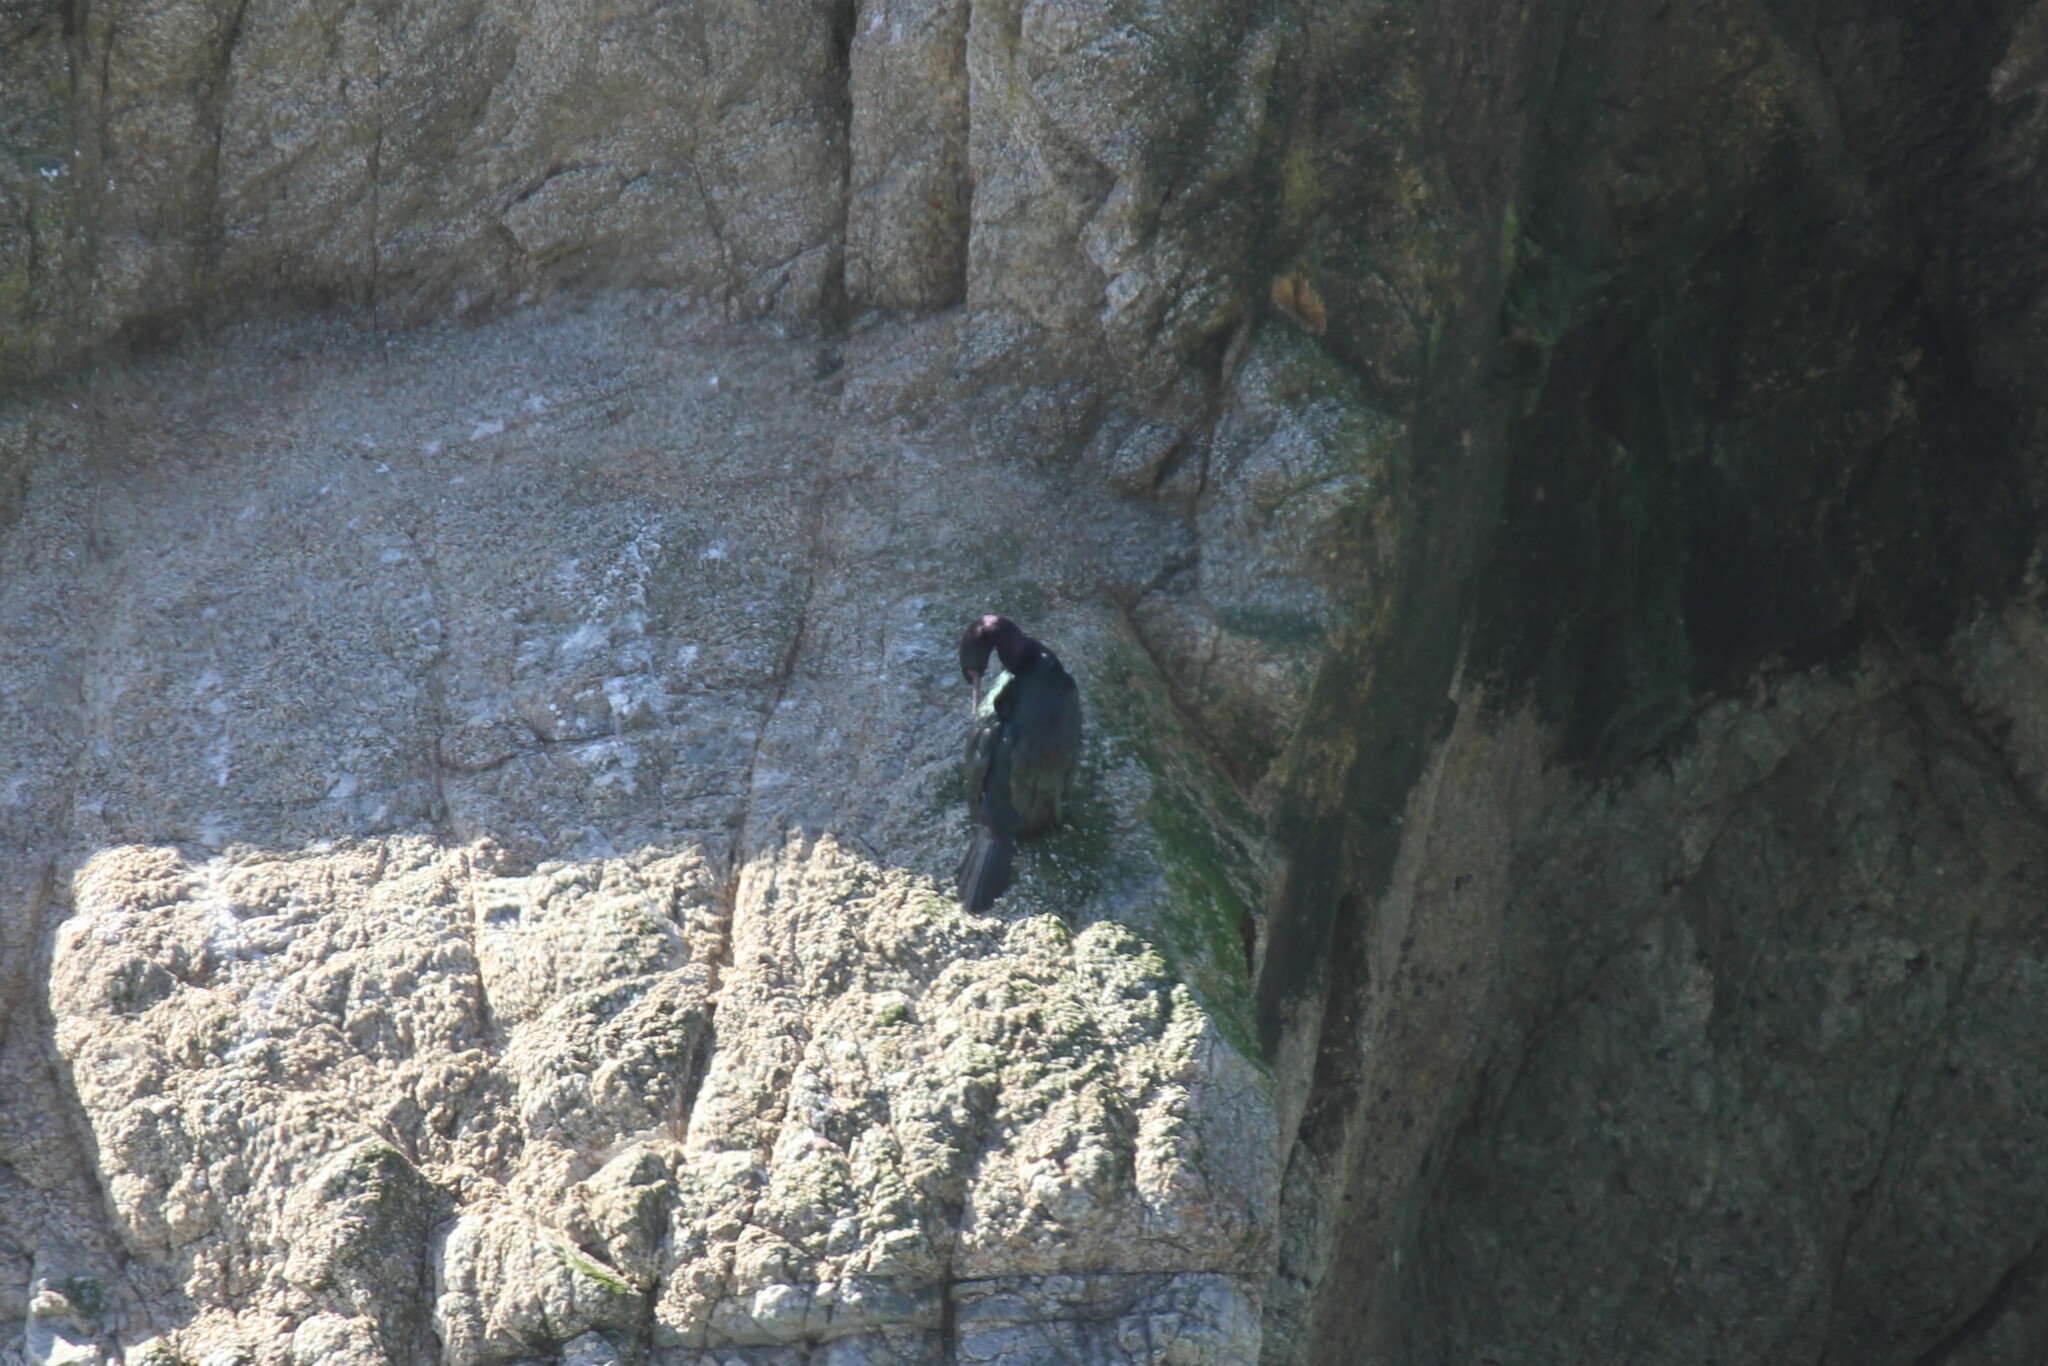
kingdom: Animalia
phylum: Chordata
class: Aves
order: Suliformes
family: Phalacrocoracidae
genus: Phalacrocorax
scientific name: Phalacrocorax pelagicus
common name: Pelagic cormorant
